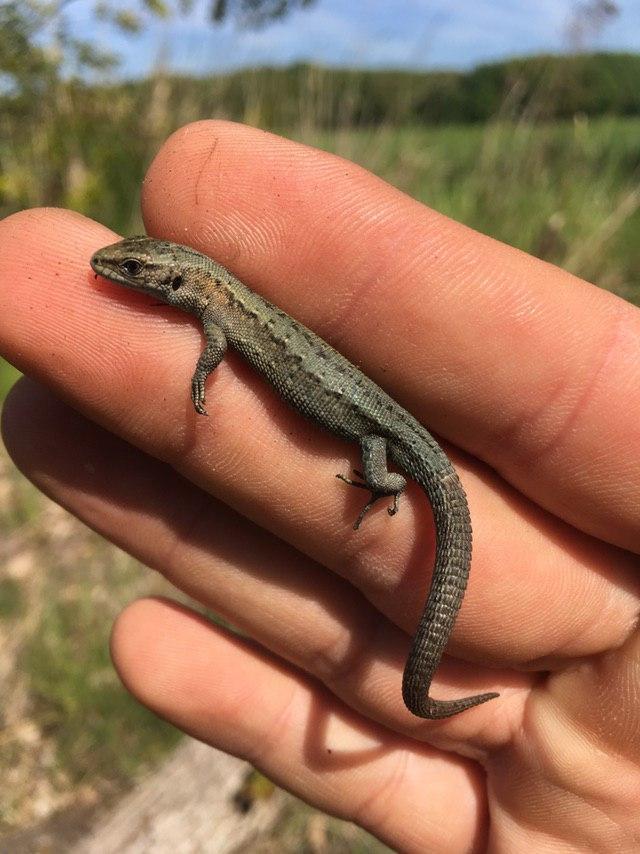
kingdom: Animalia
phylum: Chordata
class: Squamata
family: Lacertidae
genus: Zootoca
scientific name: Zootoca vivipara
